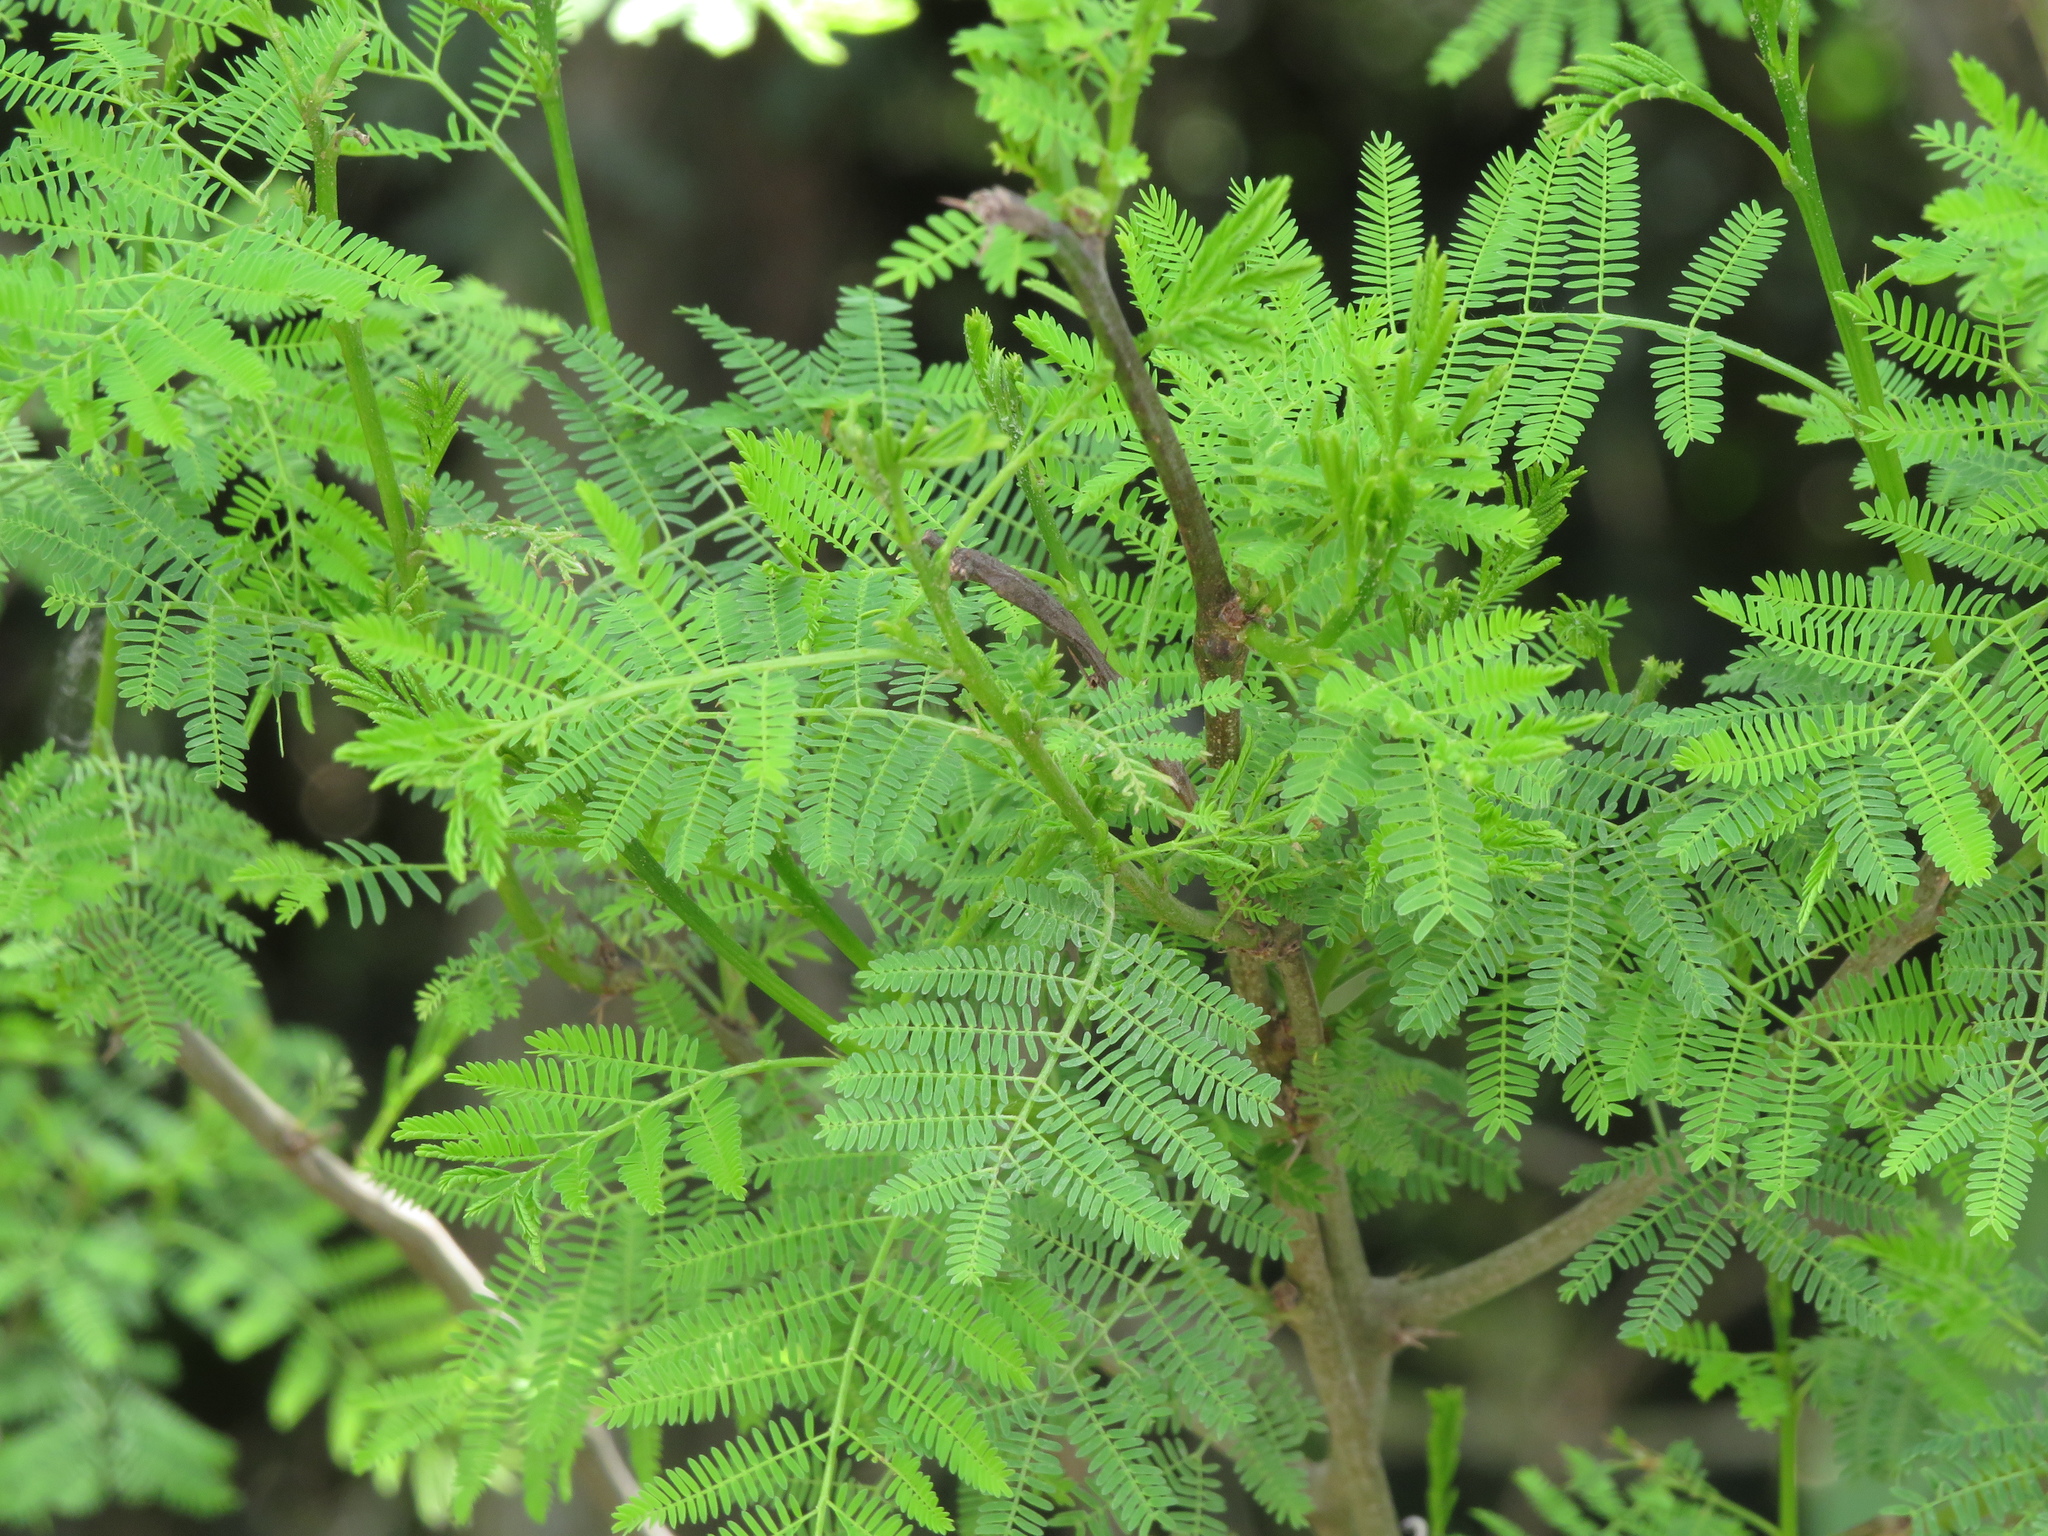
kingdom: Plantae
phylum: Tracheophyta
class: Magnoliopsida
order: Fabales
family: Fabaceae
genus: Vachellia
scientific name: Vachellia caven
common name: Roman cassie
